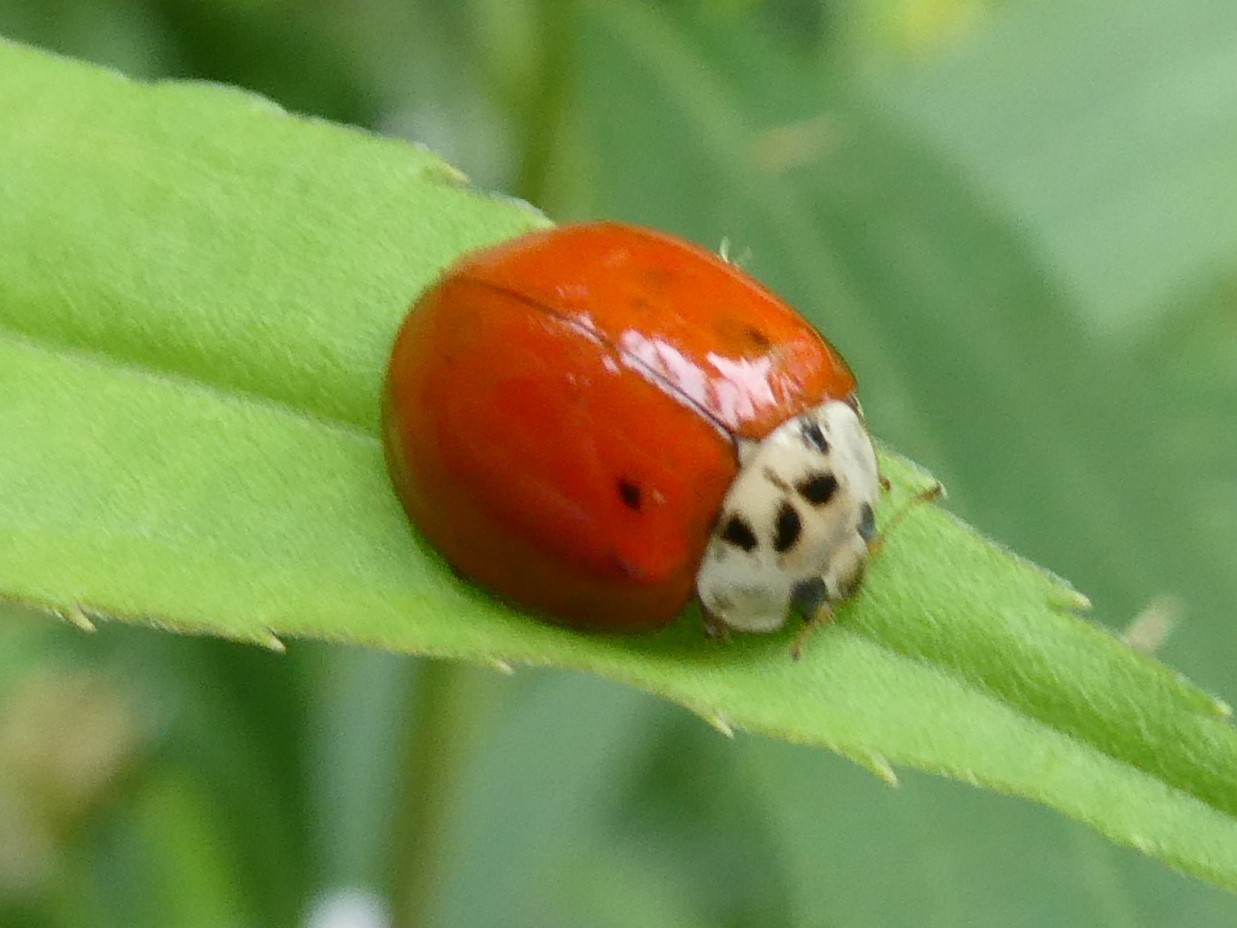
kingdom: Fungi
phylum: Ascomycota
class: Laboulbeniomycetes
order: Laboulbeniales
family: Laboulbeniaceae
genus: Hesperomyces
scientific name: Hesperomyces harmoniae
